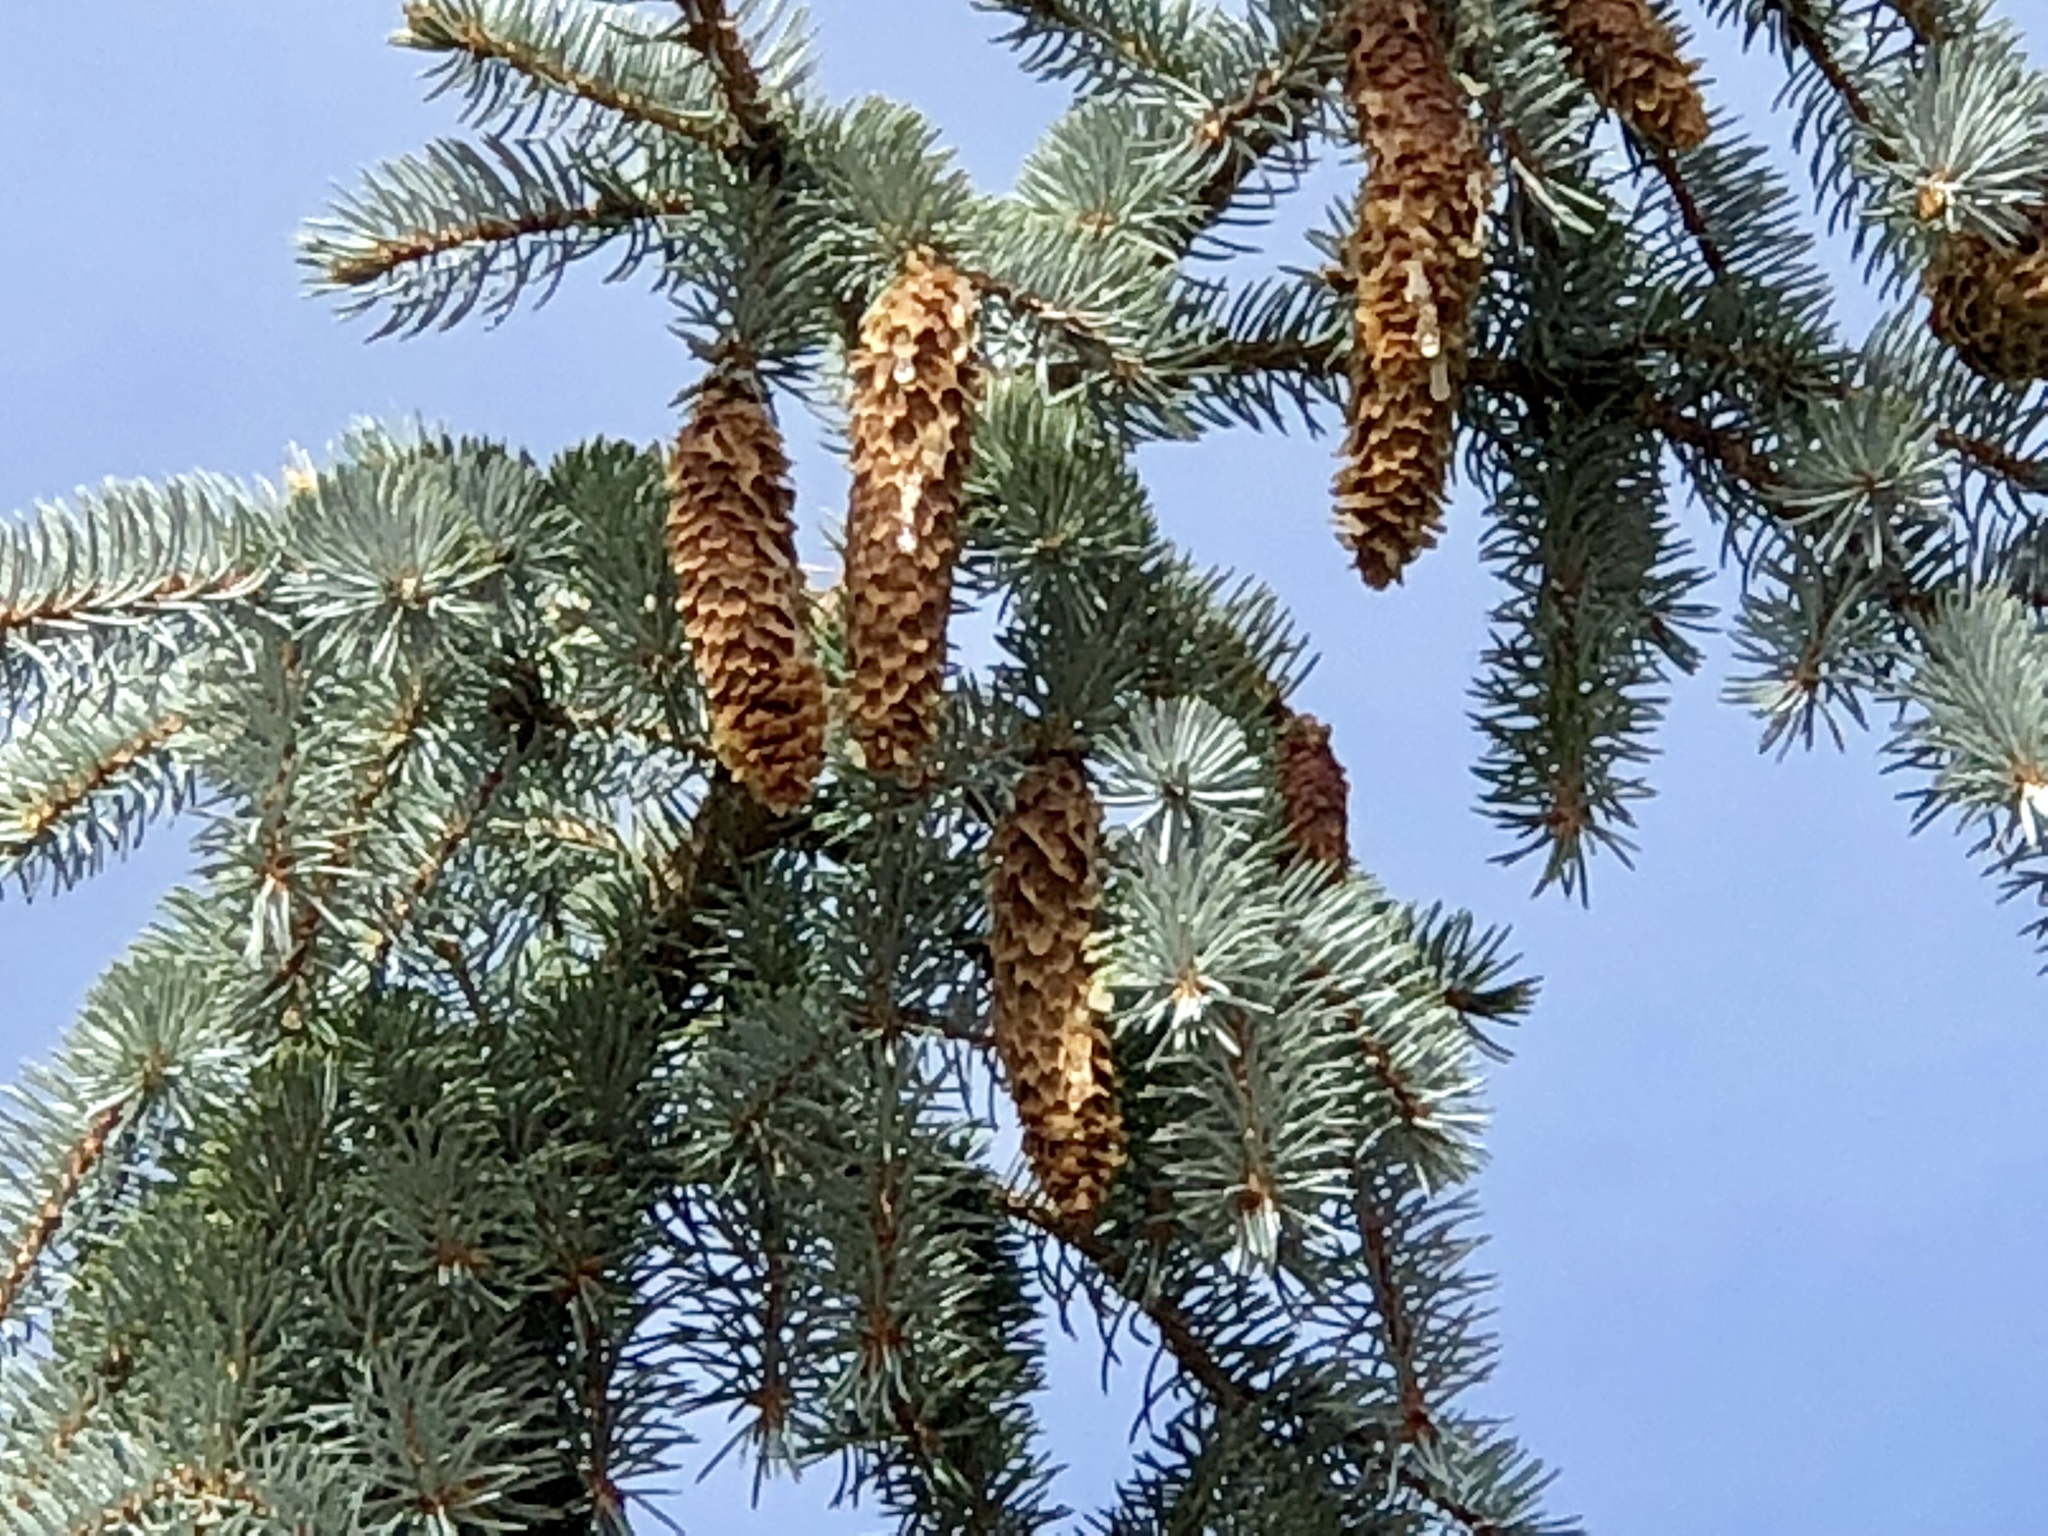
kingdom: Plantae
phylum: Tracheophyta
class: Pinopsida
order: Pinales
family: Pinaceae
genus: Picea
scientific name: Picea pungens
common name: Colorado spruce
